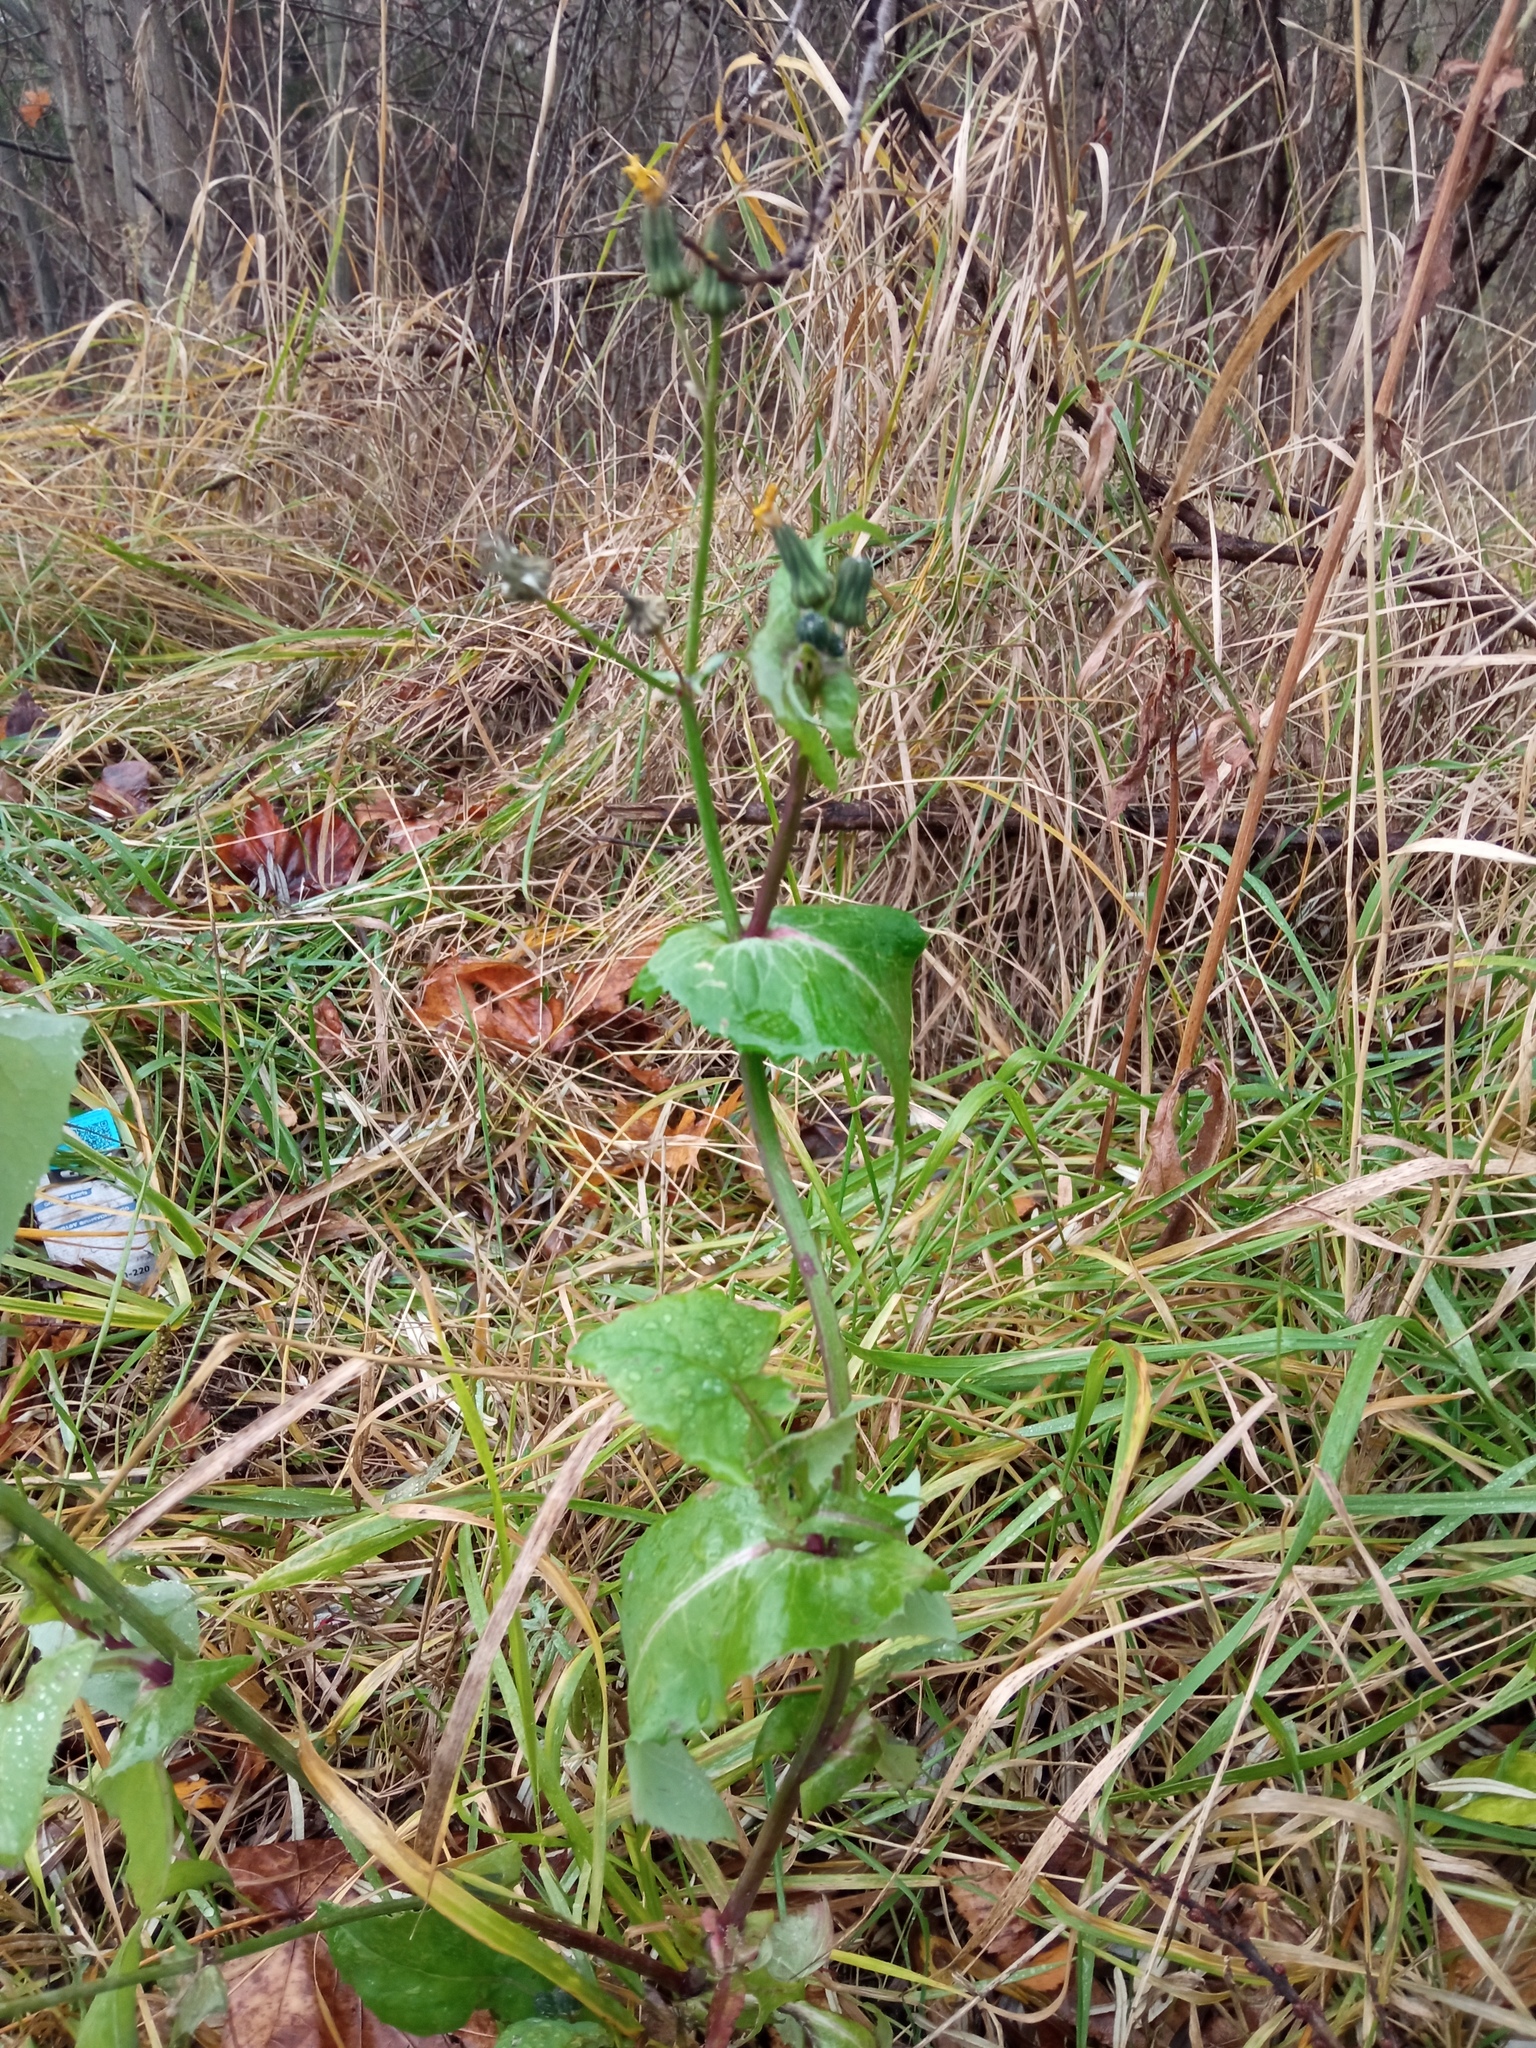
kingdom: Plantae
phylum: Tracheophyta
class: Magnoliopsida
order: Asterales
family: Asteraceae
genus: Sonchus
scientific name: Sonchus oleraceus
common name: Common sowthistle
